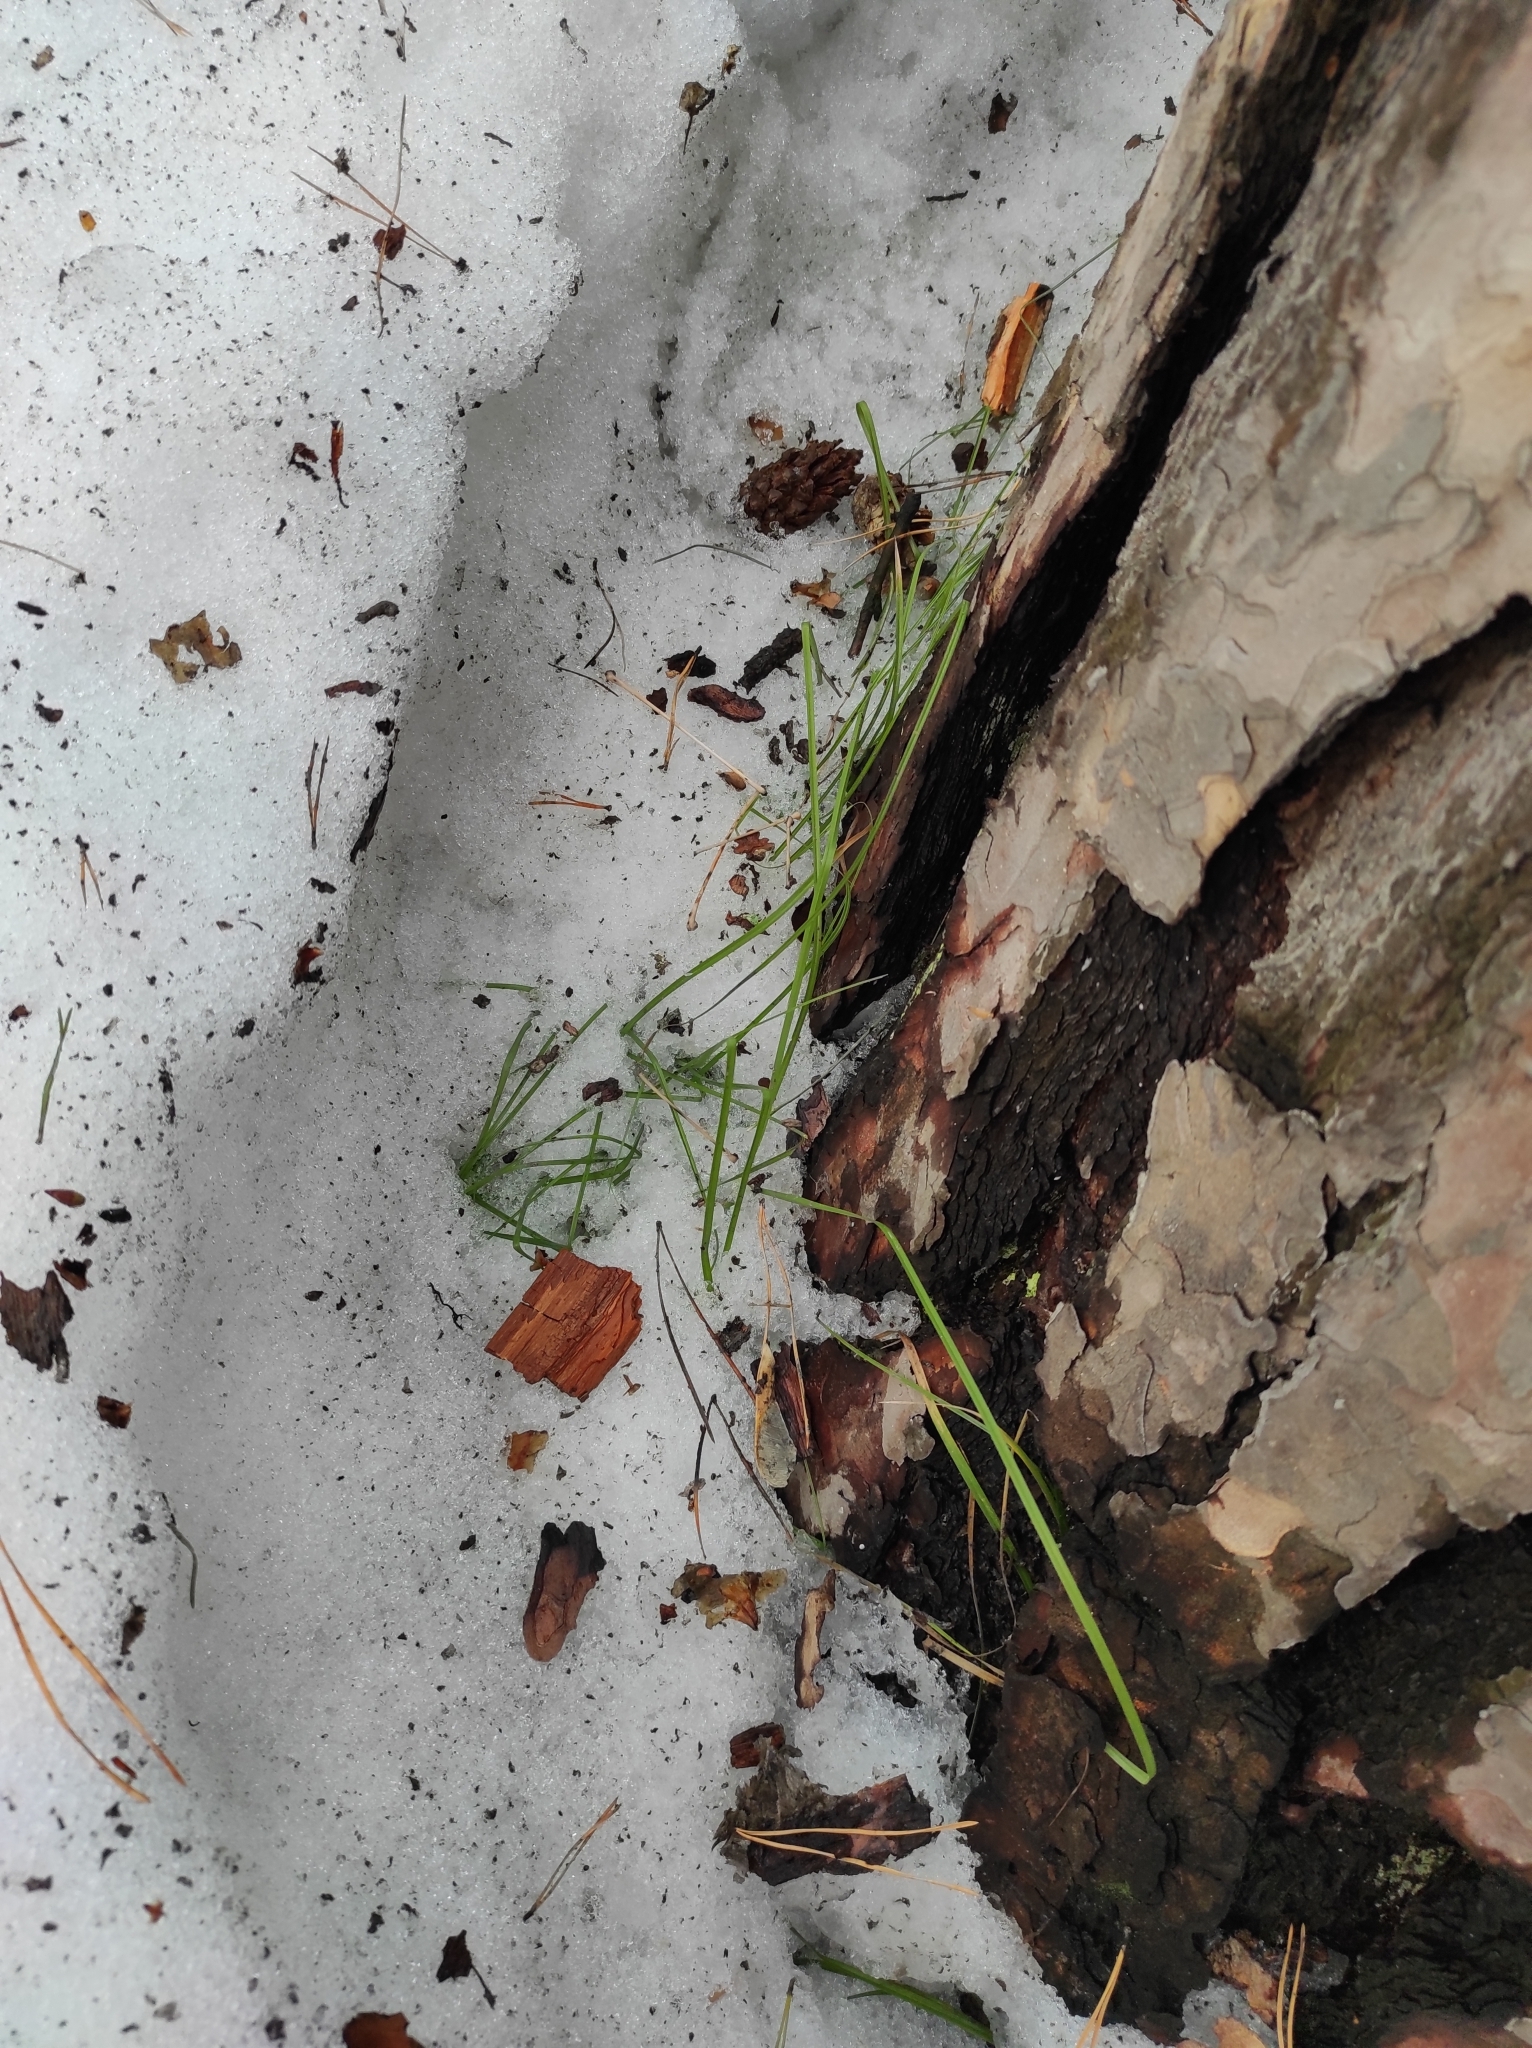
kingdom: Plantae
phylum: Tracheophyta
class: Pinopsida
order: Pinales
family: Pinaceae
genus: Pinus
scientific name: Pinus sylvestris
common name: Scots pine
